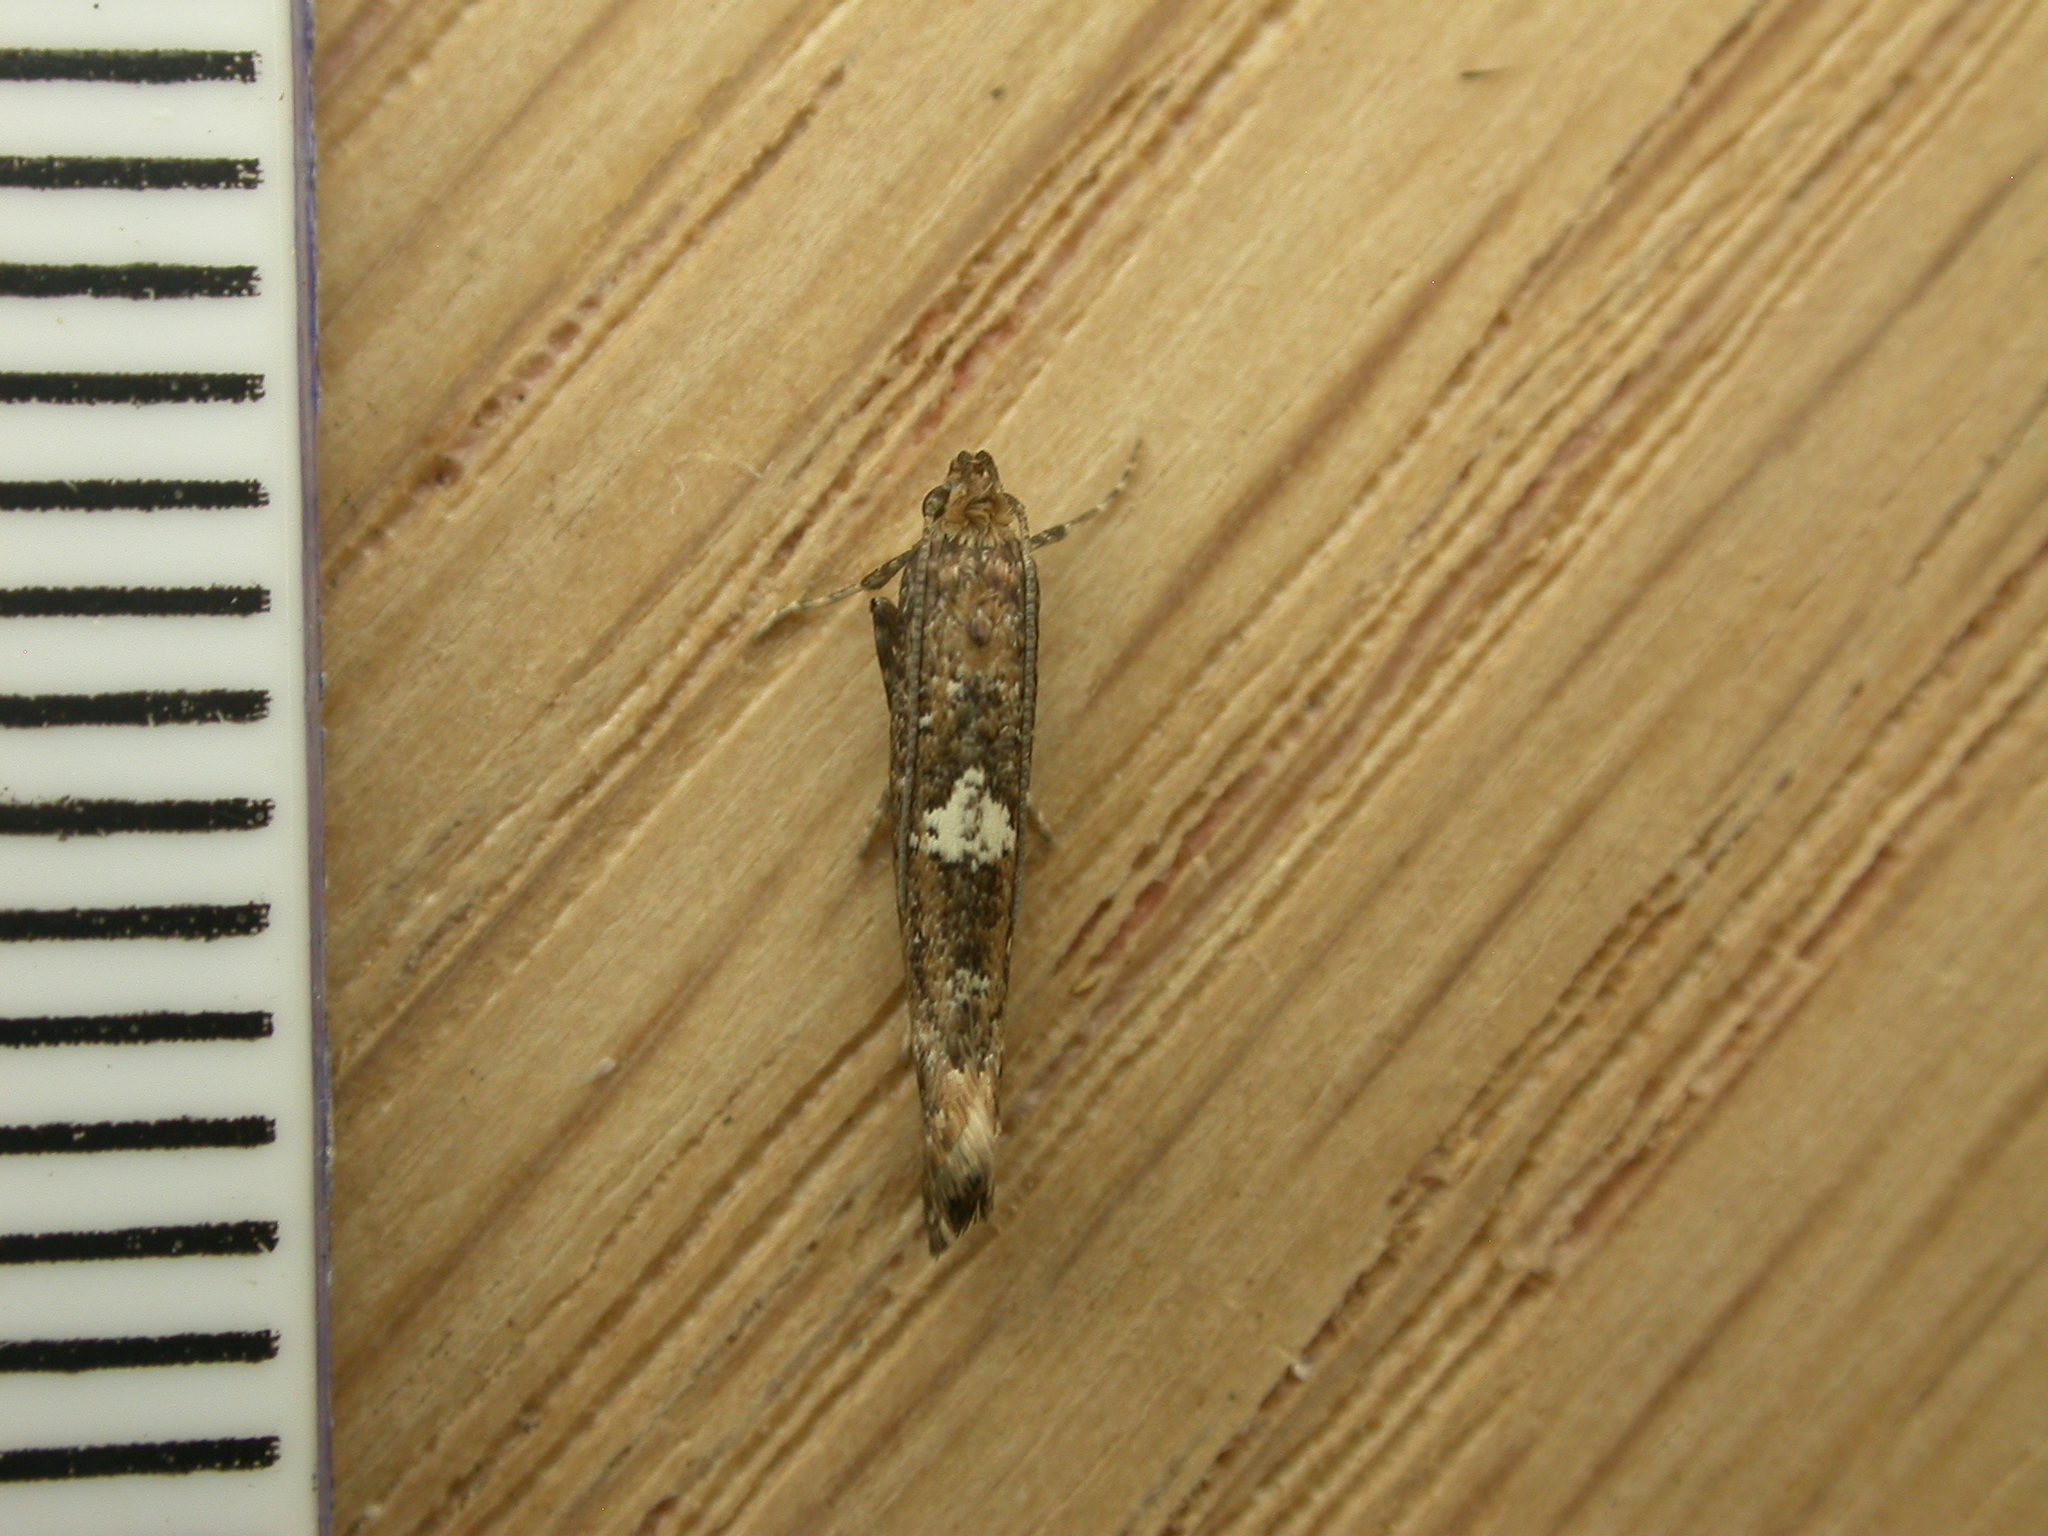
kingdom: Animalia
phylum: Arthropoda
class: Insecta
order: Lepidoptera
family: Glyphipterigidae
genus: Acrolepia
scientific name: Acrolepia assectella
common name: Onion leaf miner
